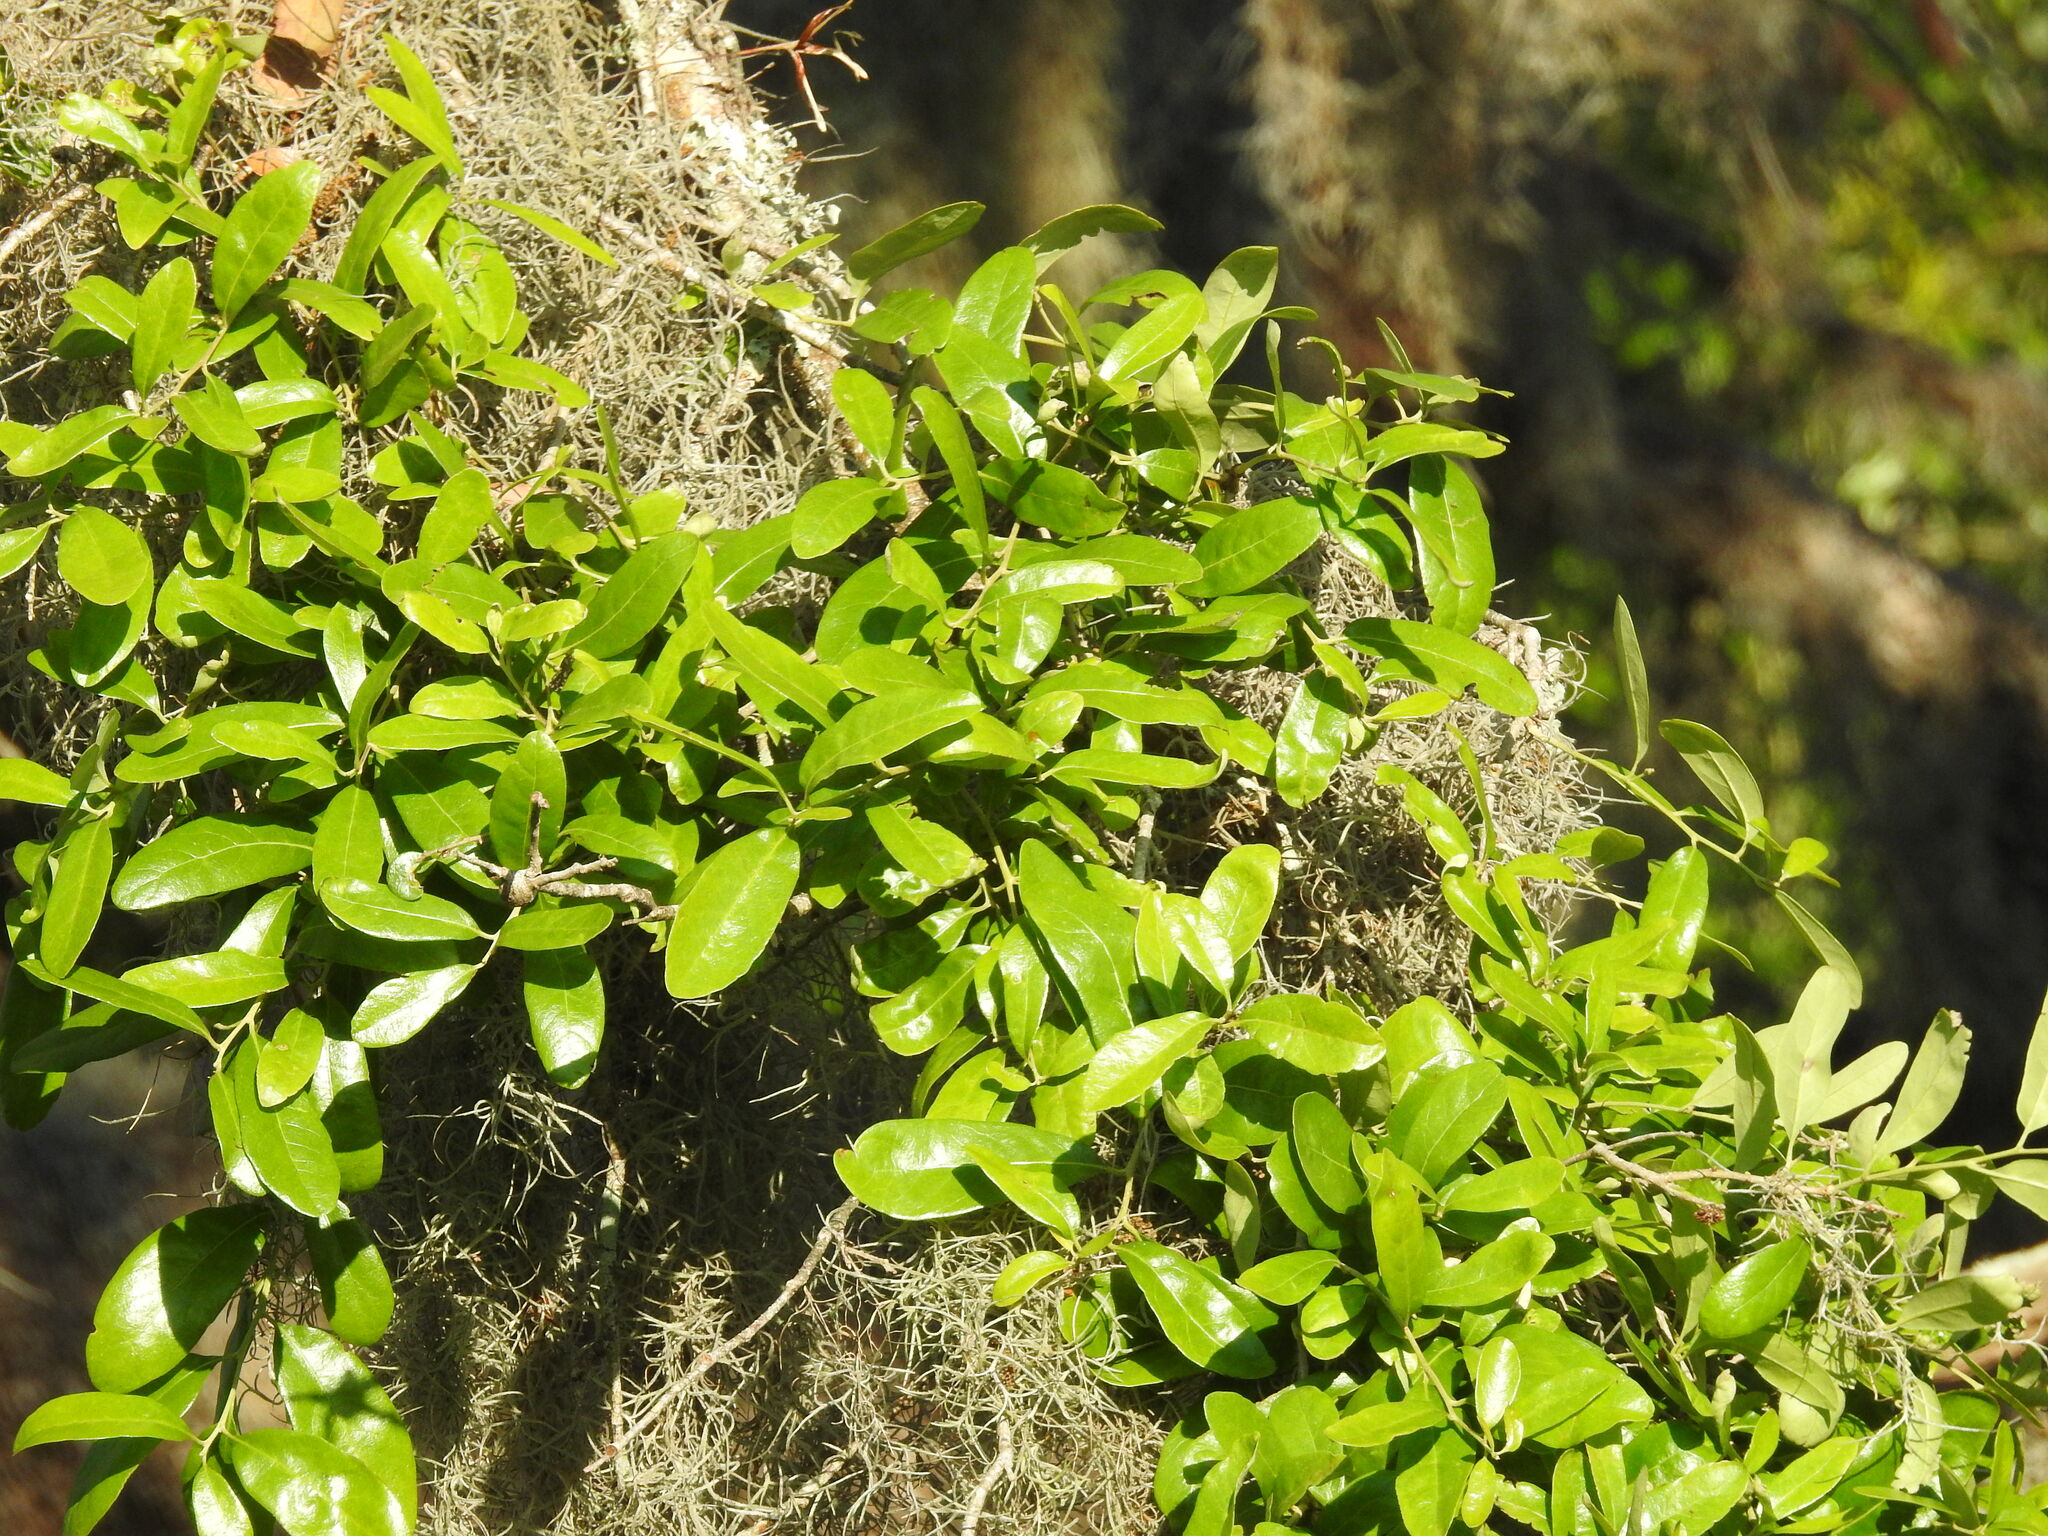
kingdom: Plantae
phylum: Tracheophyta
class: Magnoliopsida
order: Fagales
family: Fagaceae
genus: Quercus
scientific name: Quercus virginiana
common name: Southern live oak
